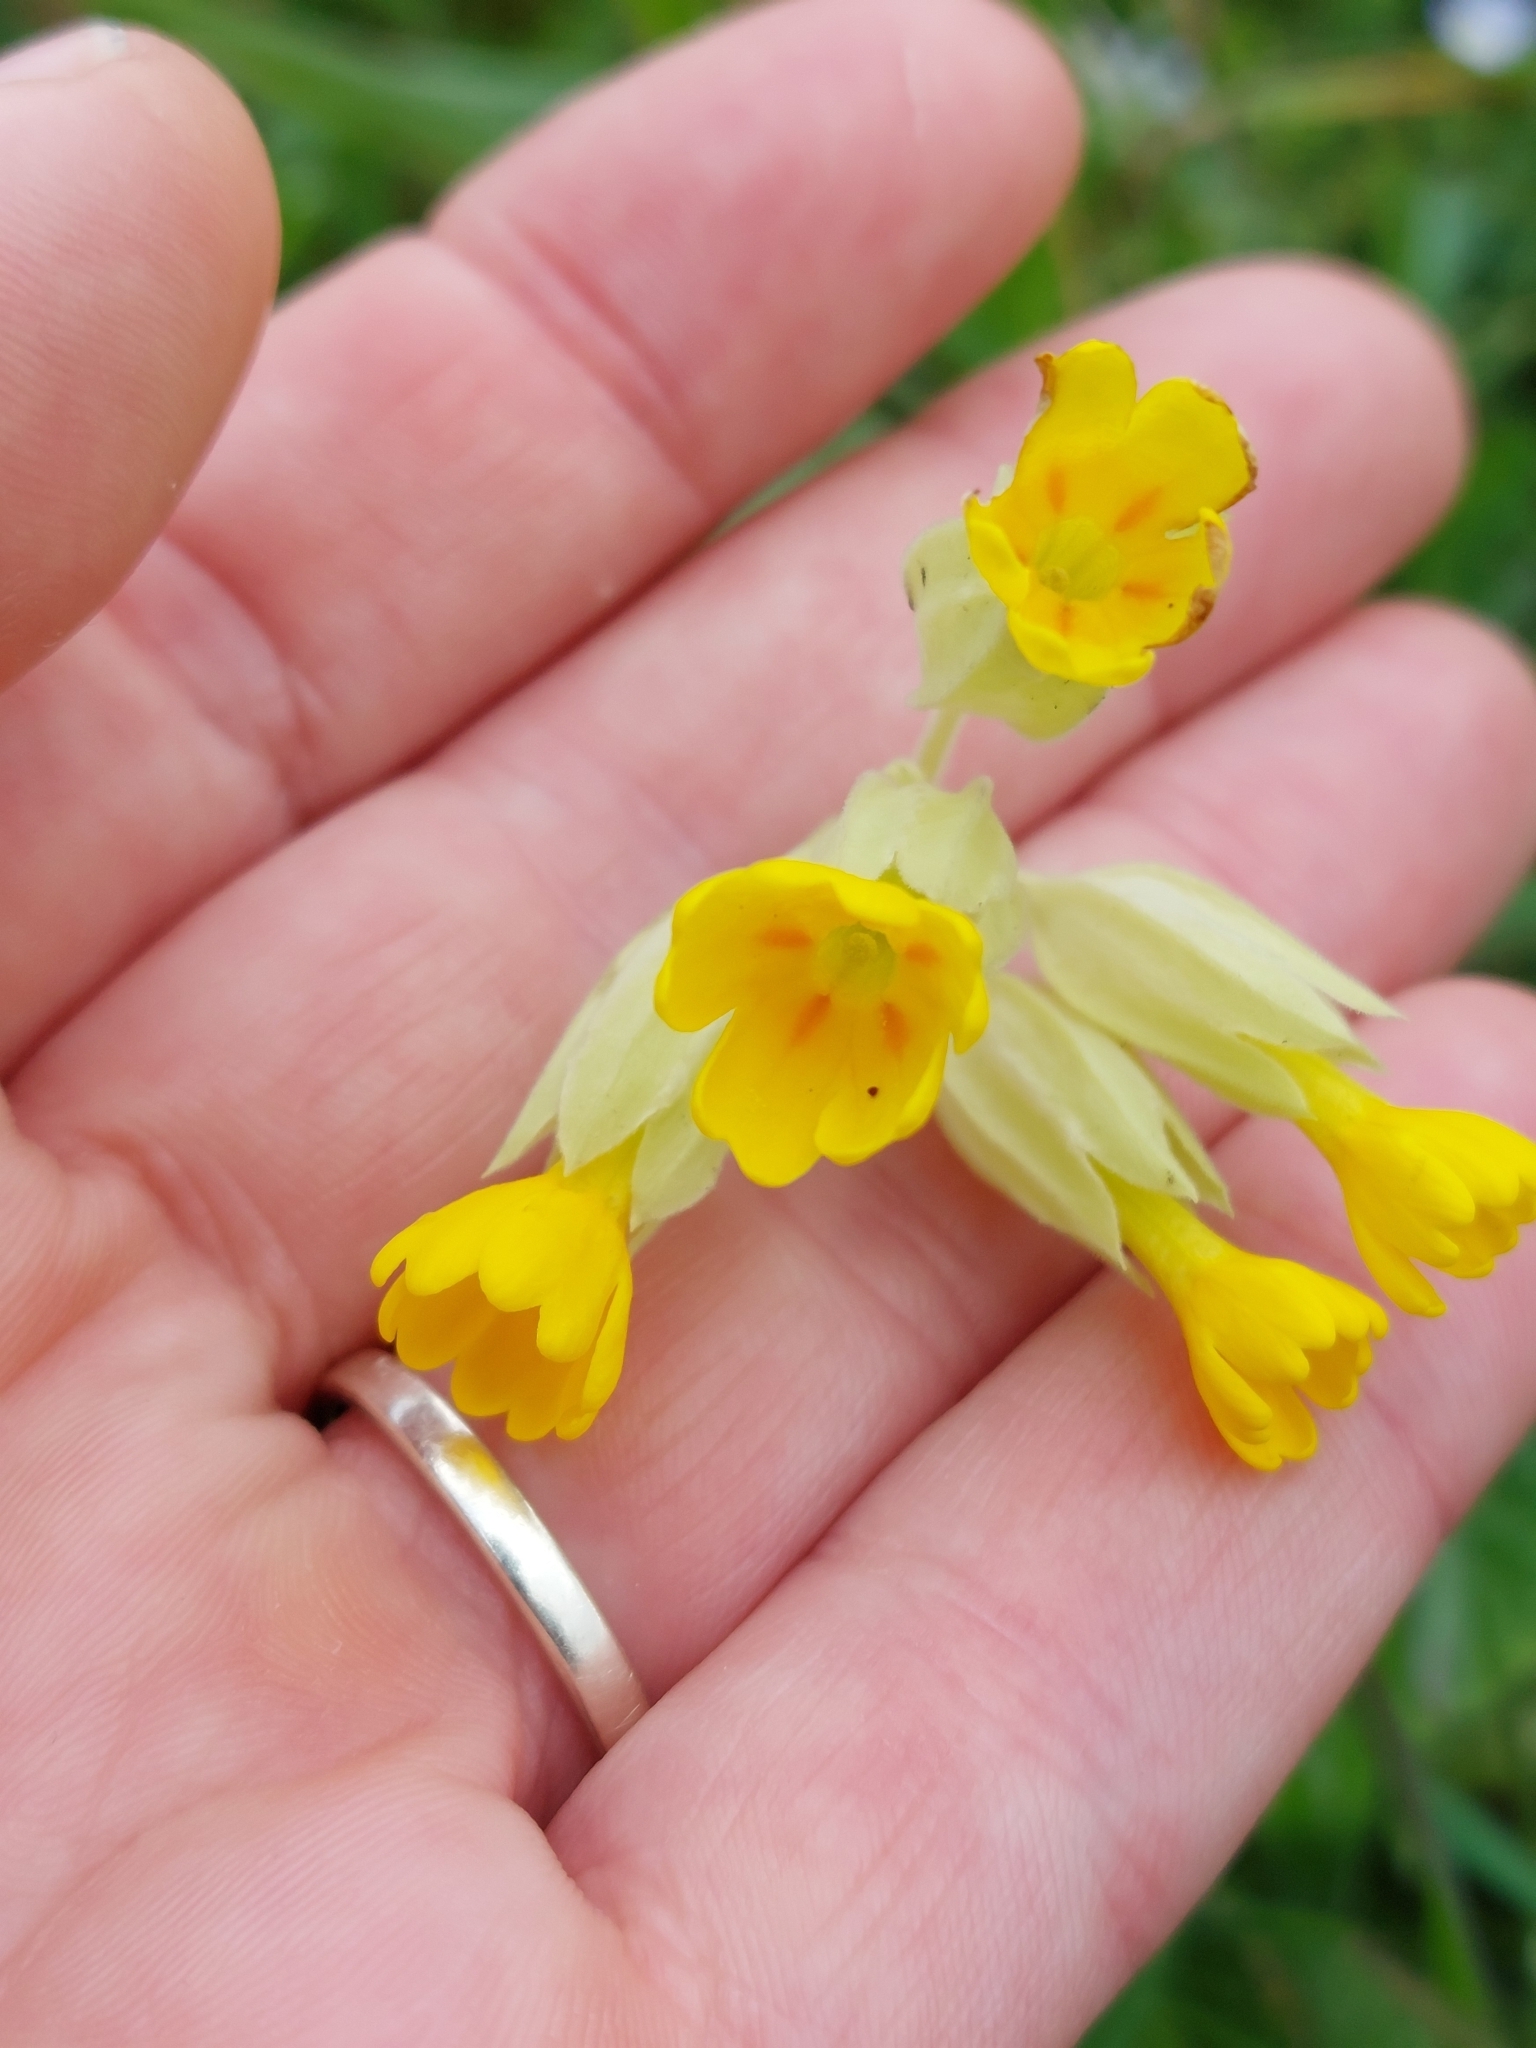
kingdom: Plantae
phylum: Tracheophyta
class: Magnoliopsida
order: Ericales
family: Primulaceae
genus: Primula
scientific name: Primula veris
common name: Cowslip
